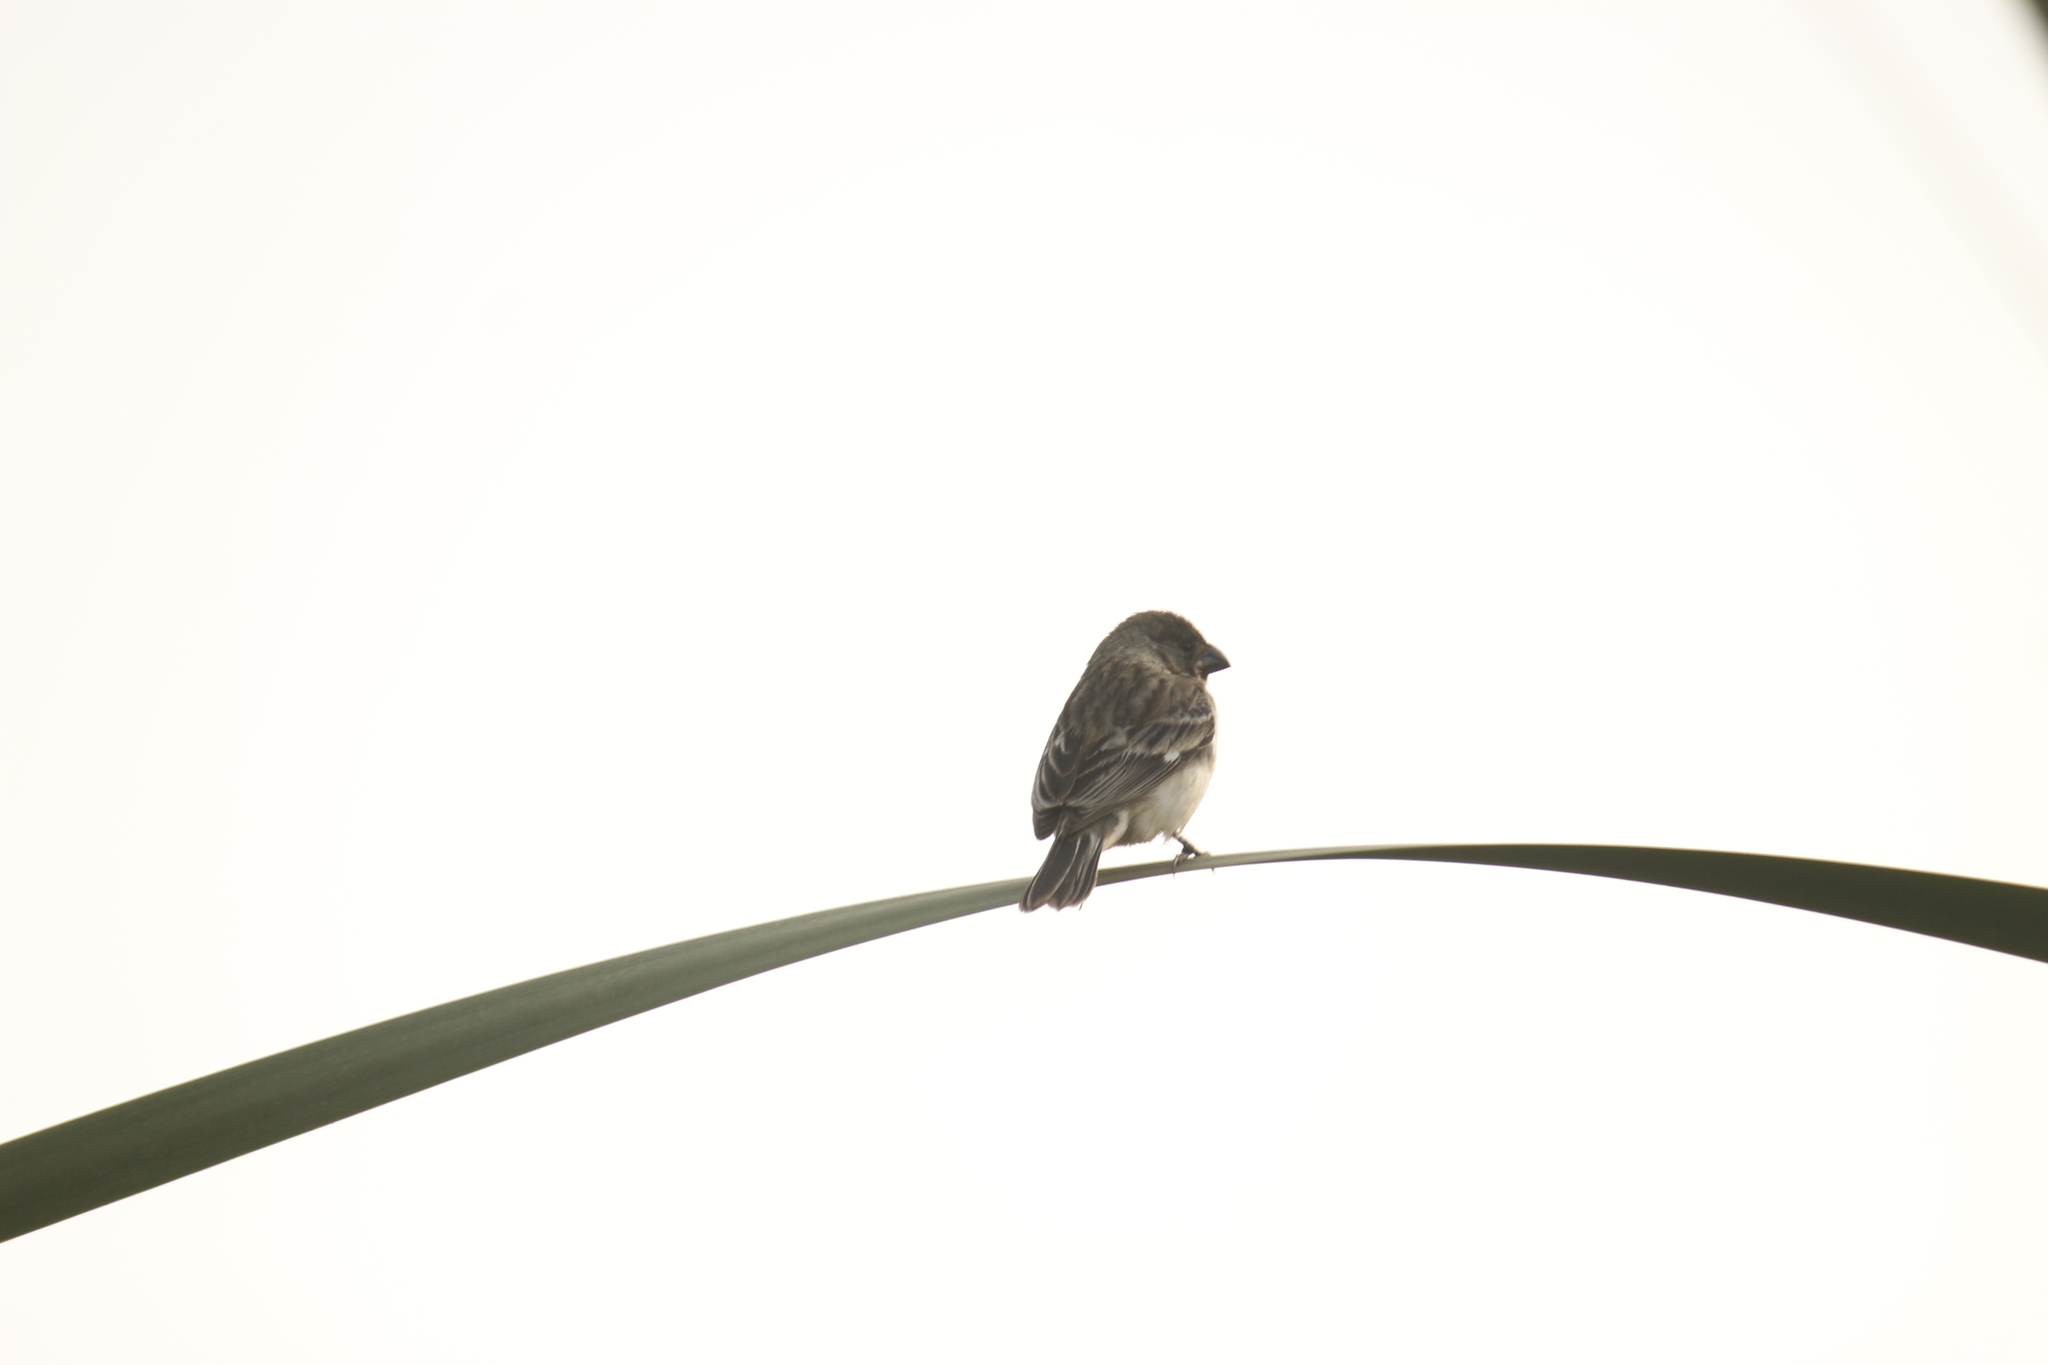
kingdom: Animalia
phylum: Chordata
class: Aves
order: Passeriformes
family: Thraupidae
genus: Sporophila
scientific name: Sporophila telasco
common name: Chestnut-throated seedeater
